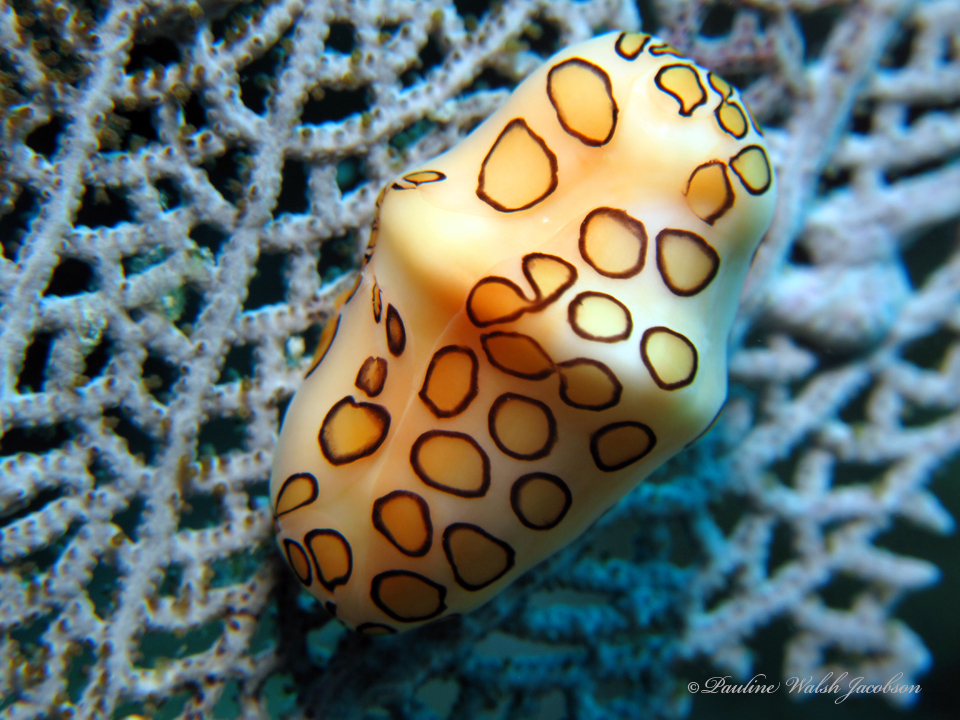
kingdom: Animalia
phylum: Mollusca
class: Gastropoda
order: Littorinimorpha
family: Ovulidae
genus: Cyphoma
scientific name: Cyphoma gibbosum
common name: Flamingo tongue
